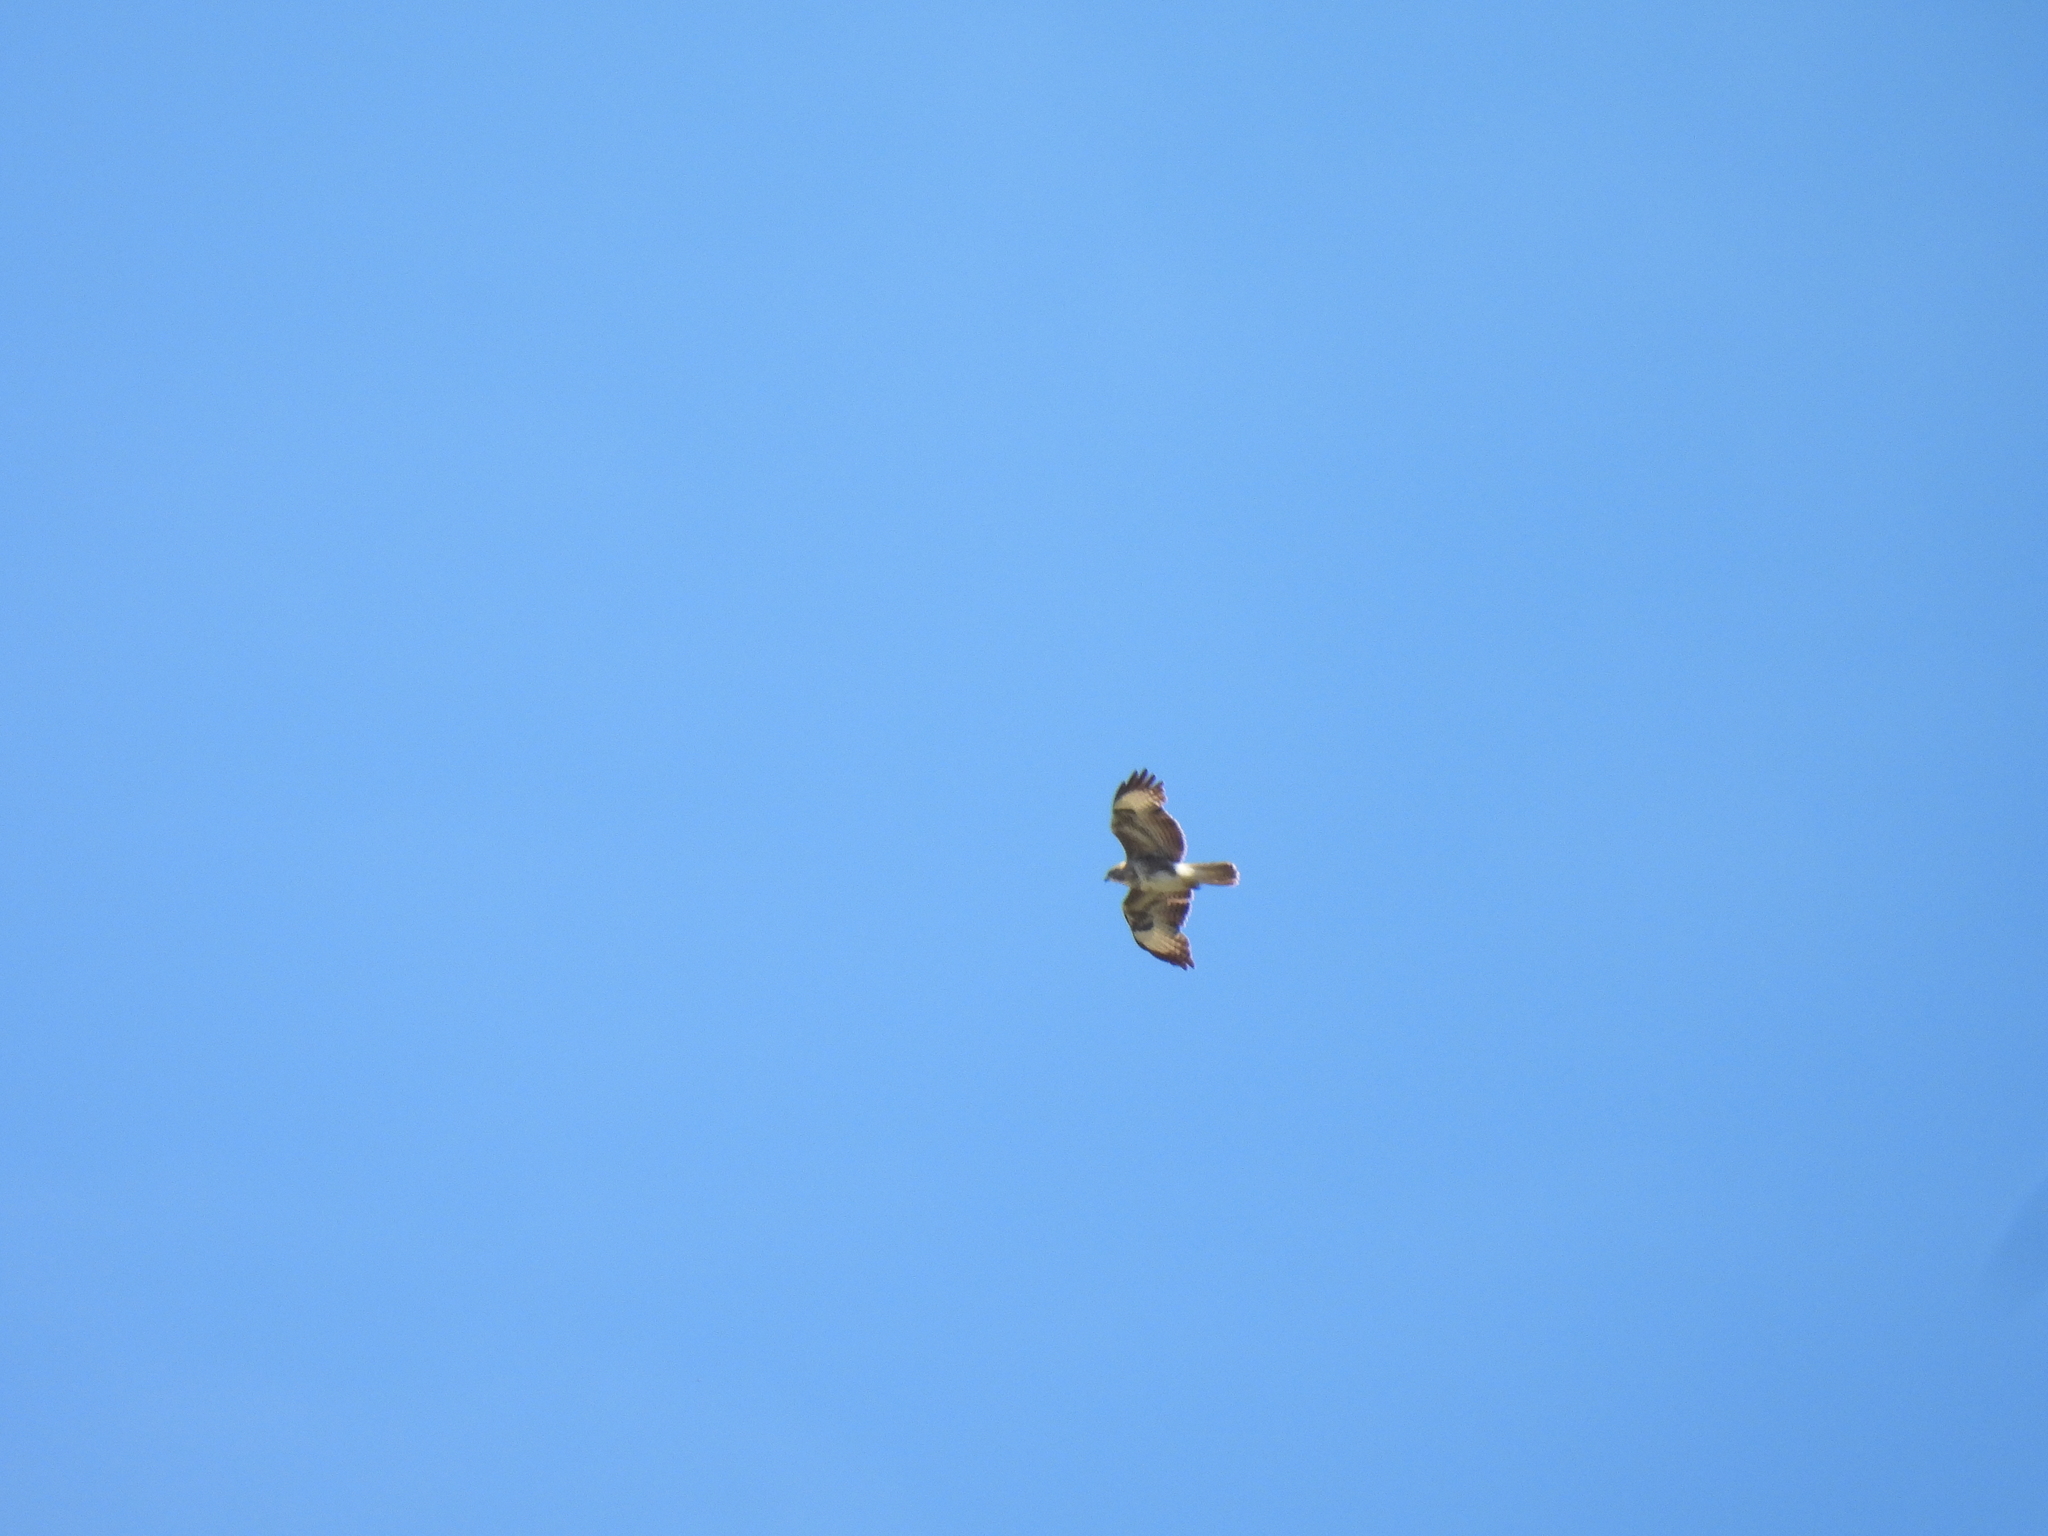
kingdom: Animalia
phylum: Chordata
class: Aves
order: Accipitriformes
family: Accipitridae
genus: Buteo
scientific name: Buteo buteo
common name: Common buzzard
